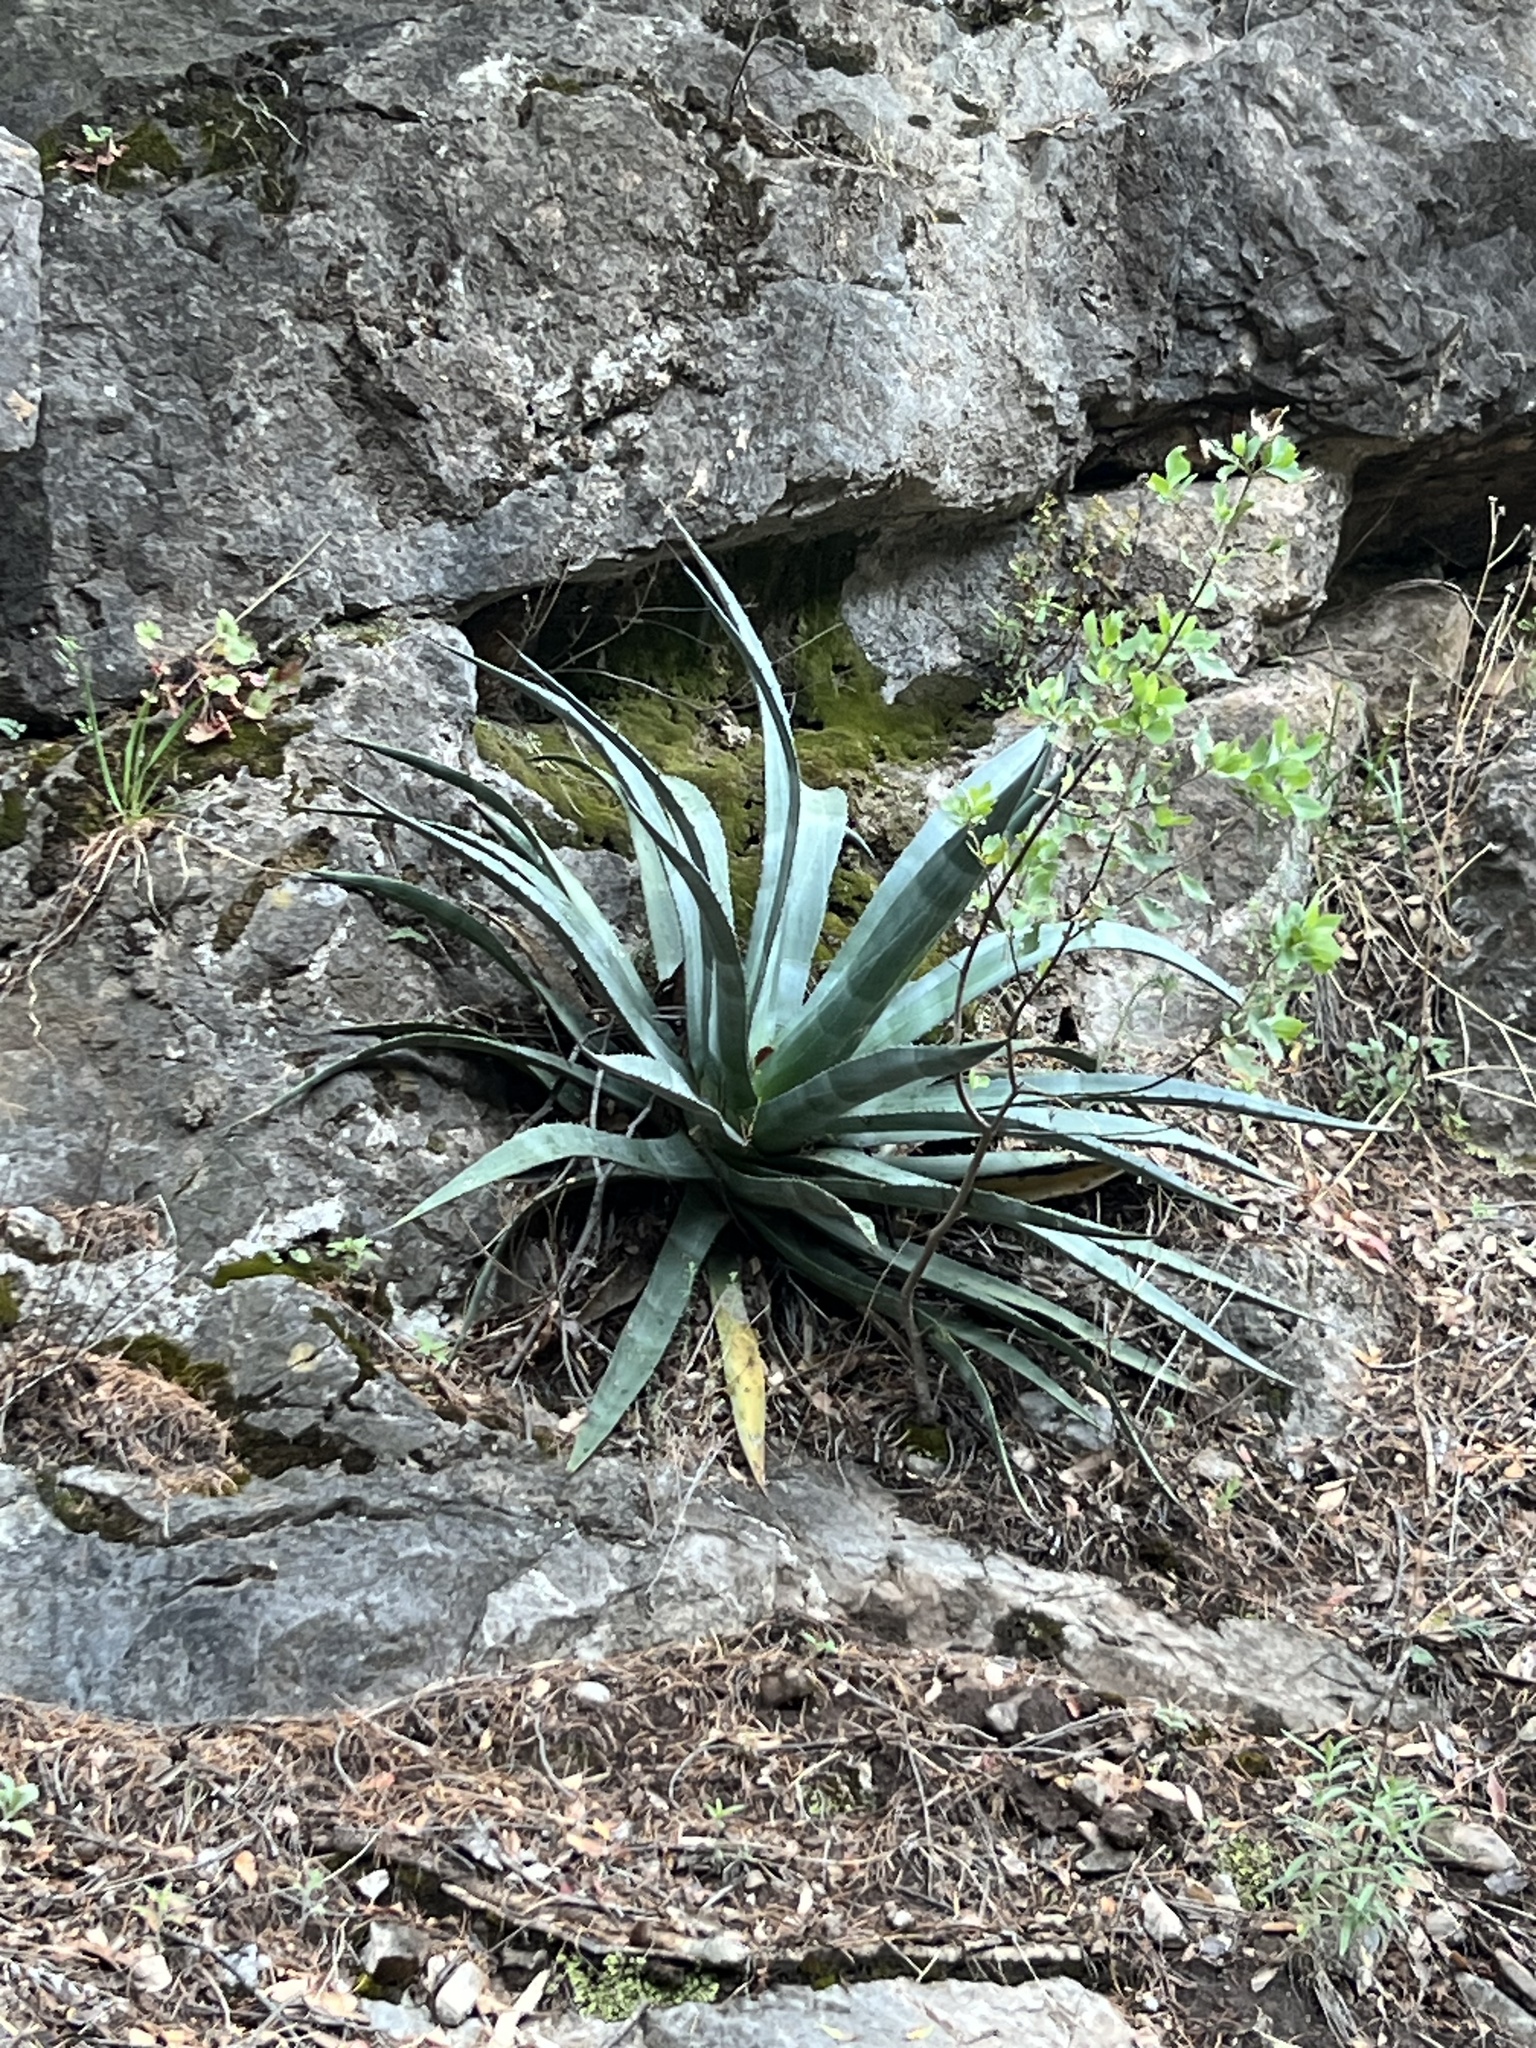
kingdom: Plantae
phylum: Tracheophyta
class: Liliopsida
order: Asparagales
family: Asparagaceae
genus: Agave
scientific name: Agave palmeri
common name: Palmer agave
